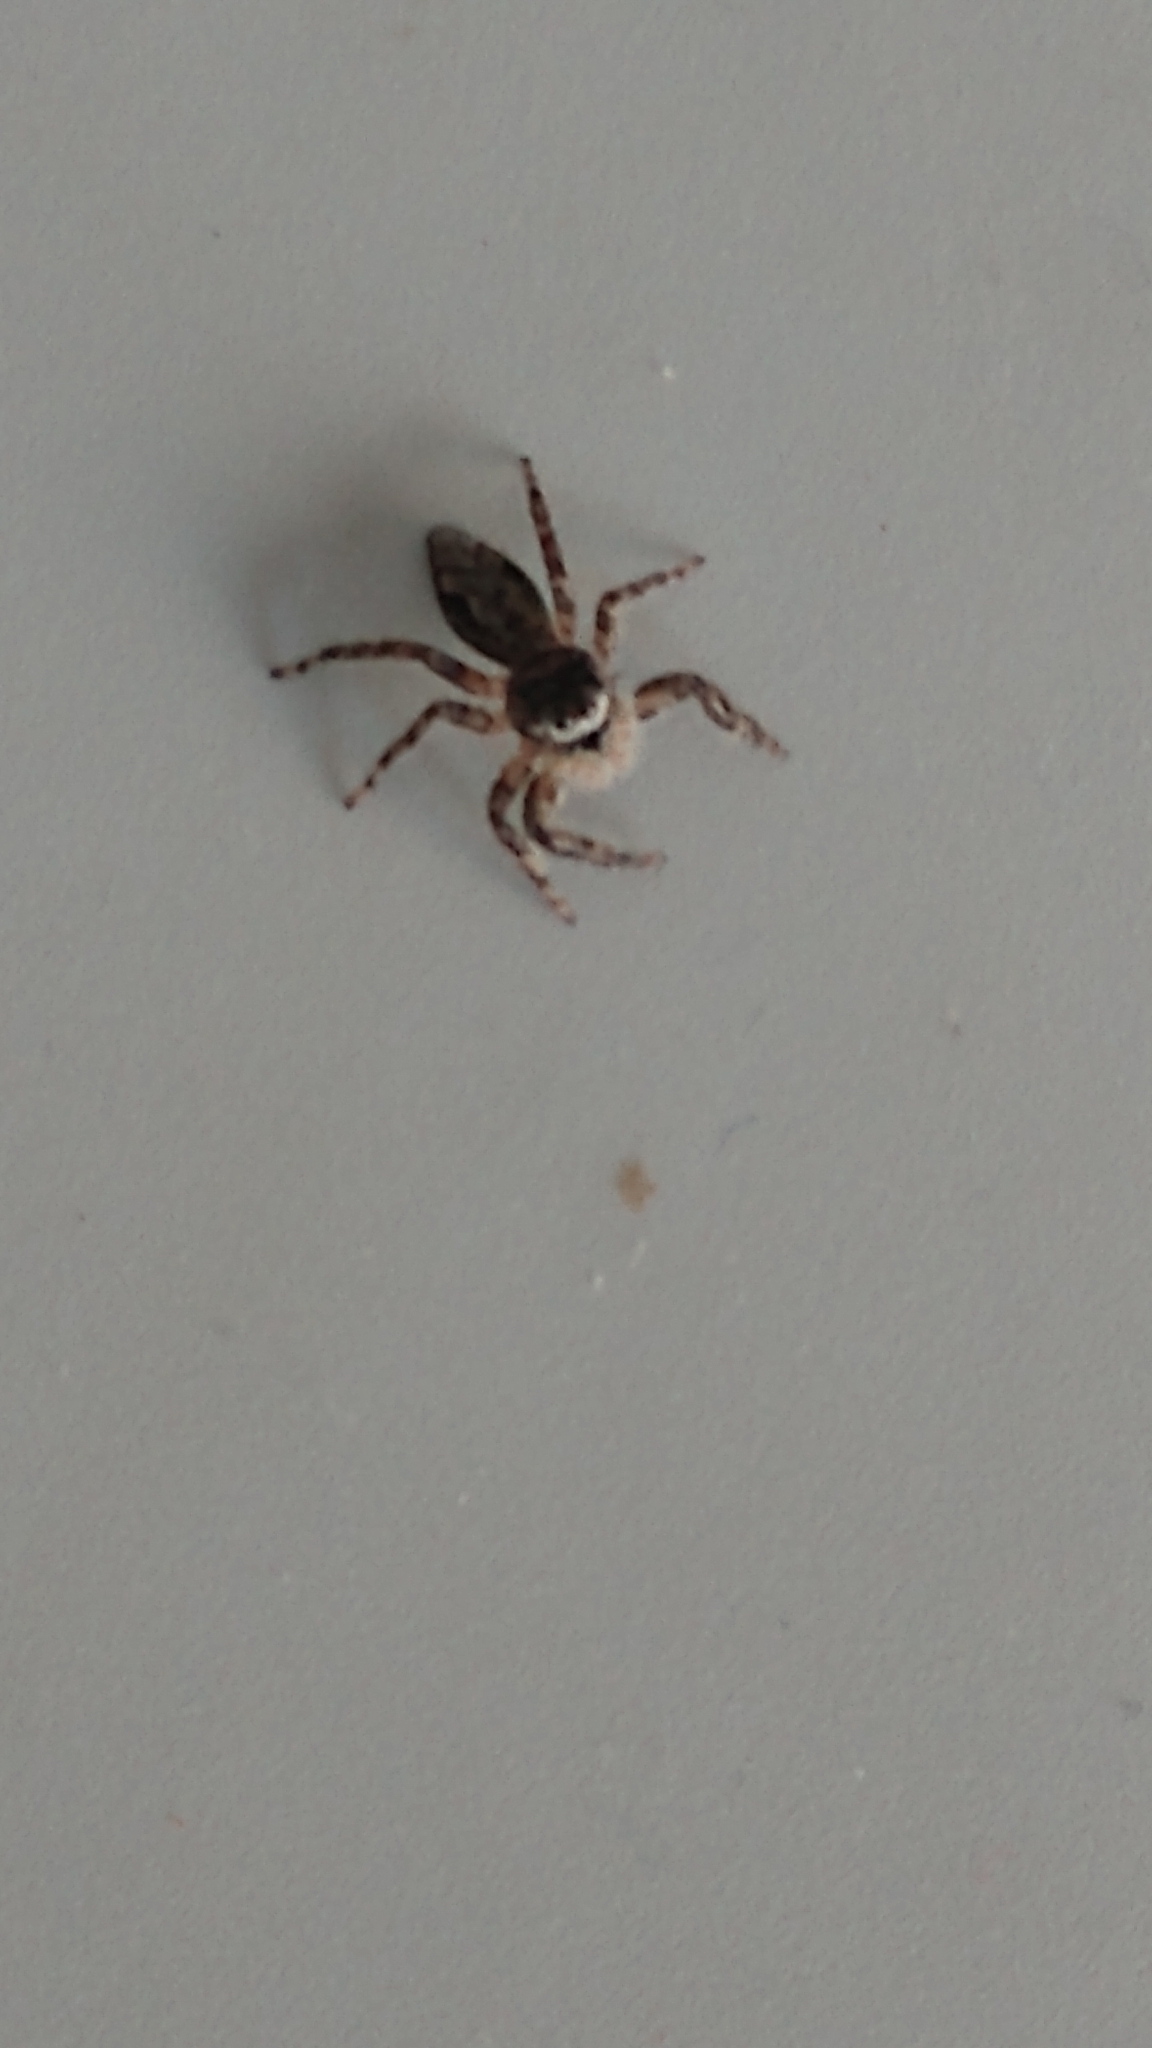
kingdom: Animalia
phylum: Arthropoda
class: Arachnida
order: Araneae
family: Salticidae
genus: Platycryptus
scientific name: Platycryptus undatus
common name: Tan jumping spider
